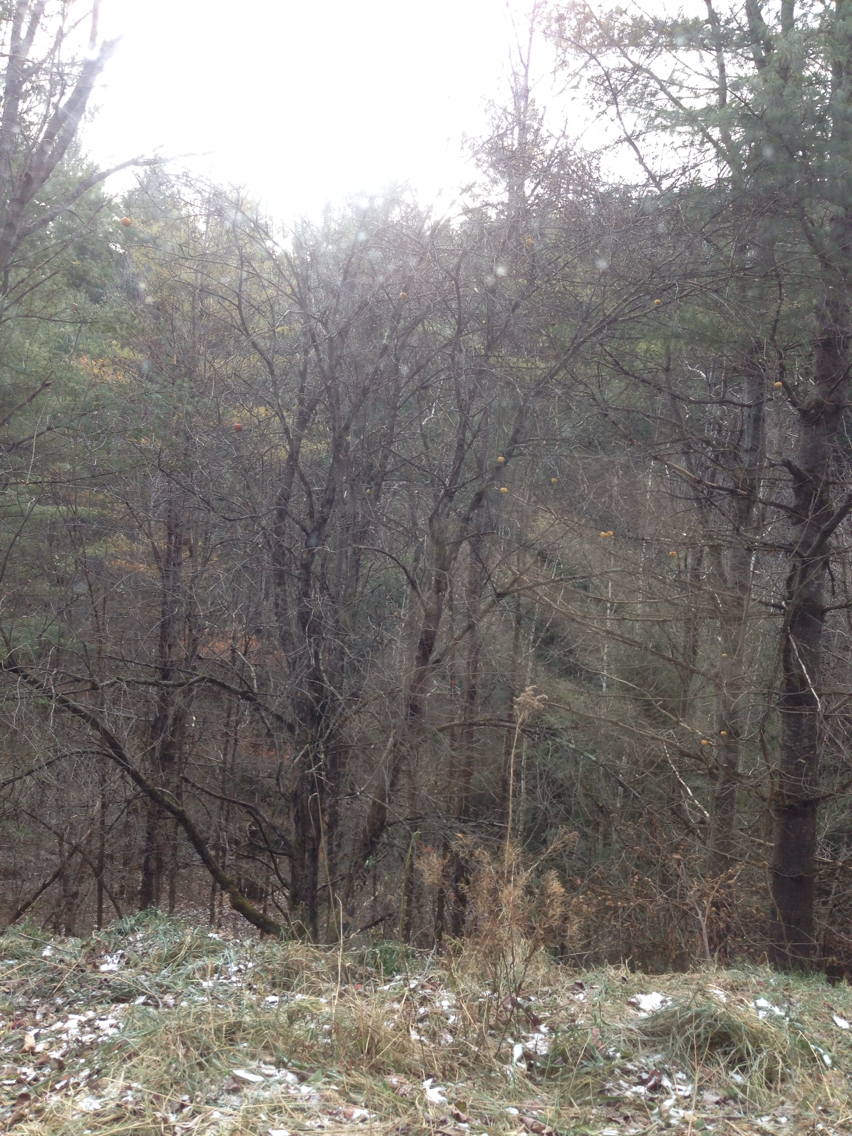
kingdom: Plantae
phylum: Tracheophyta
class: Magnoliopsida
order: Rosales
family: Rosaceae
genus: Malus
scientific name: Malus domestica
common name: Apple
